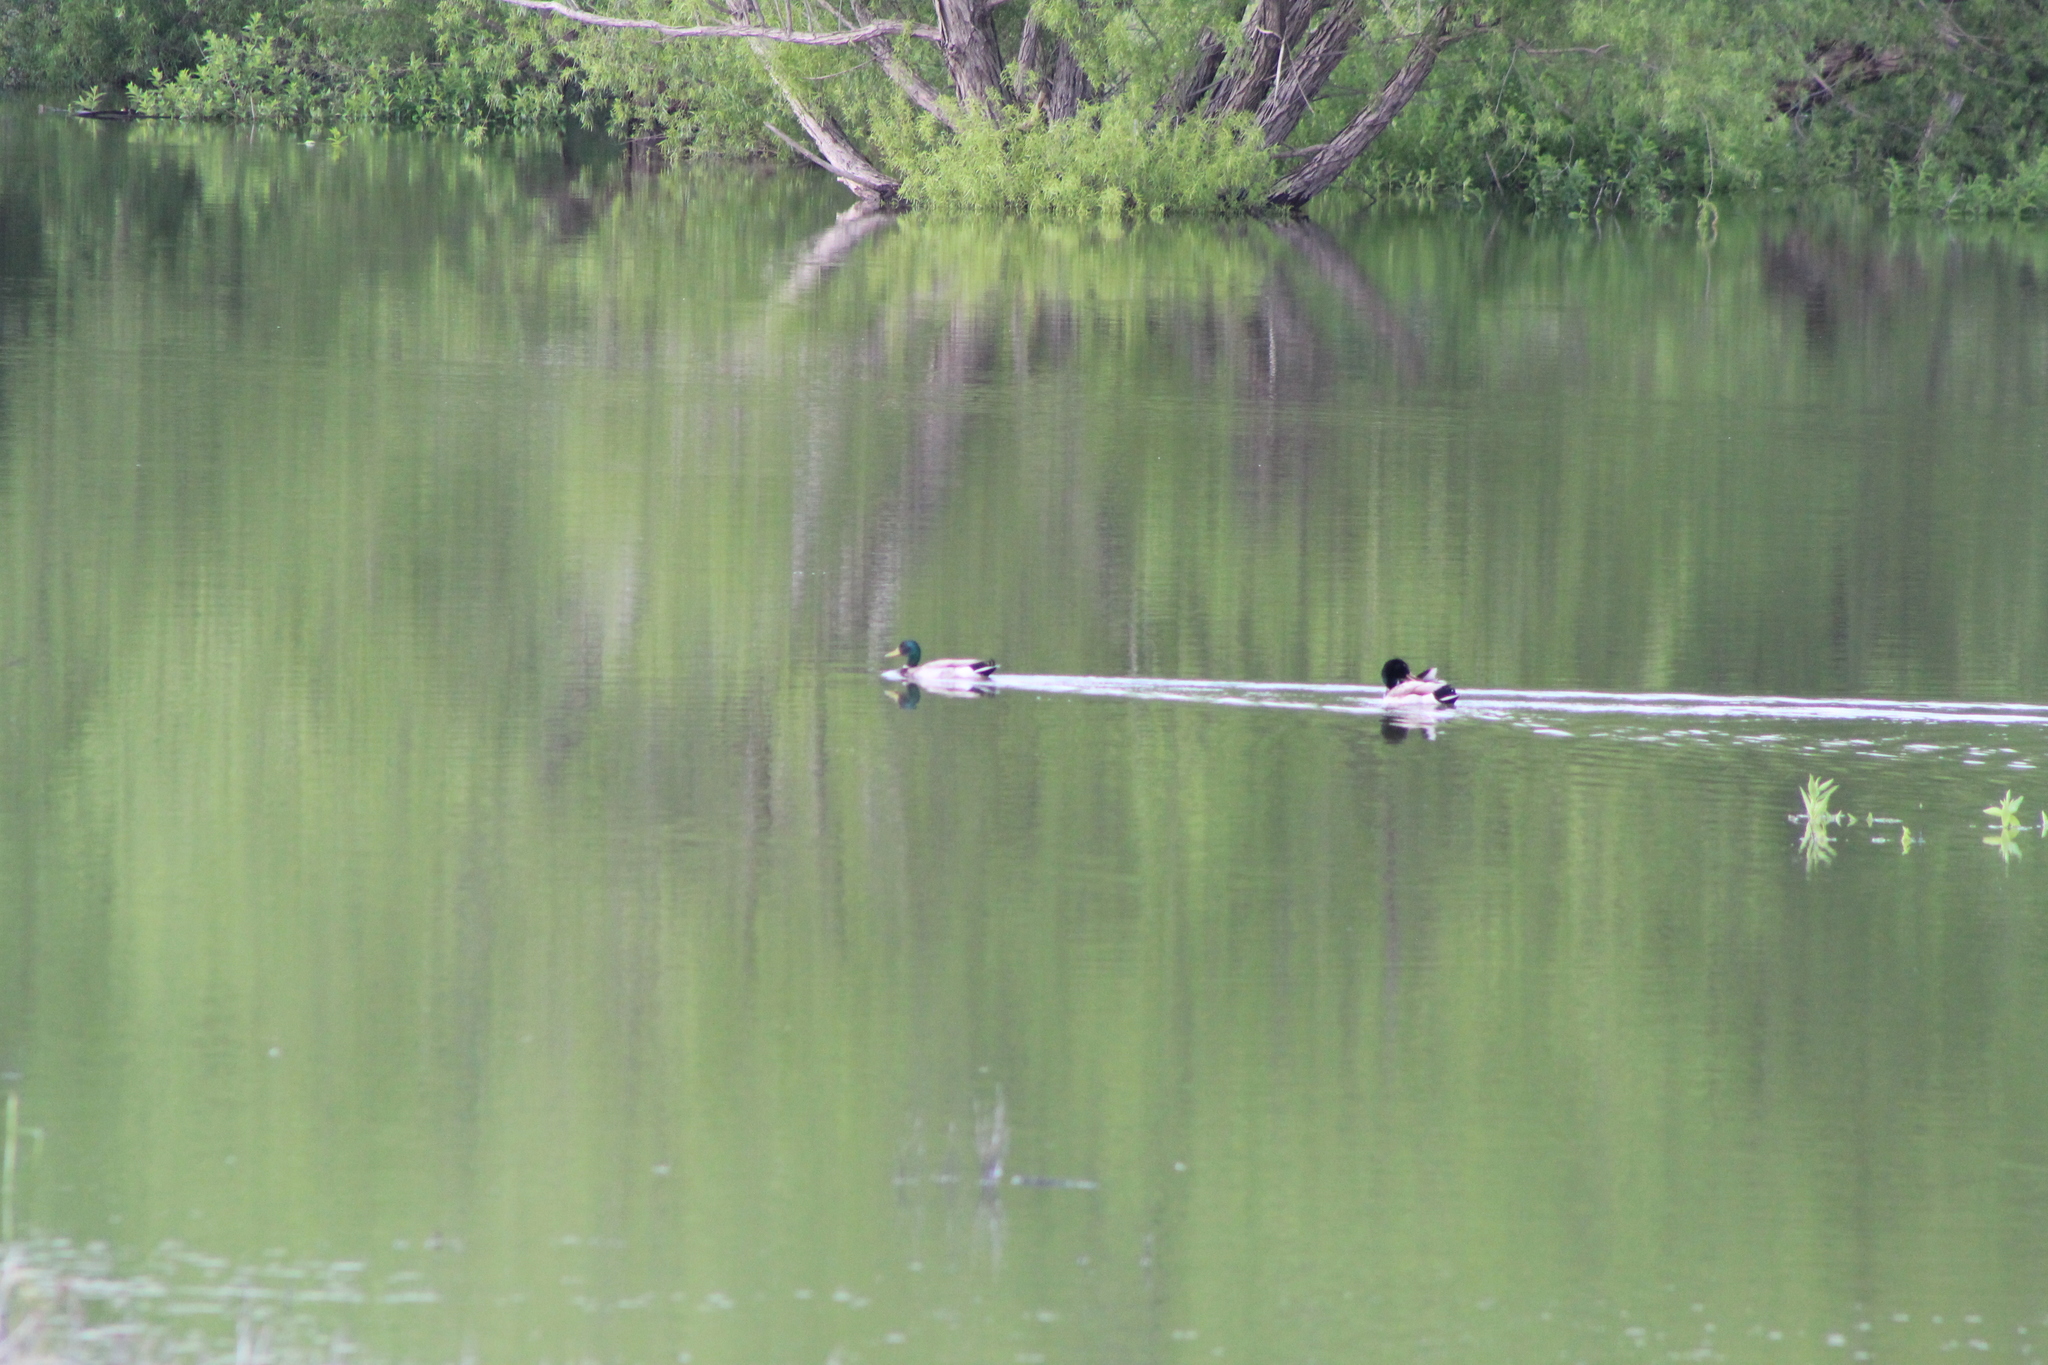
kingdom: Animalia
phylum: Chordata
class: Aves
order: Anseriformes
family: Anatidae
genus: Anas
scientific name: Anas platyrhynchos
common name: Mallard
